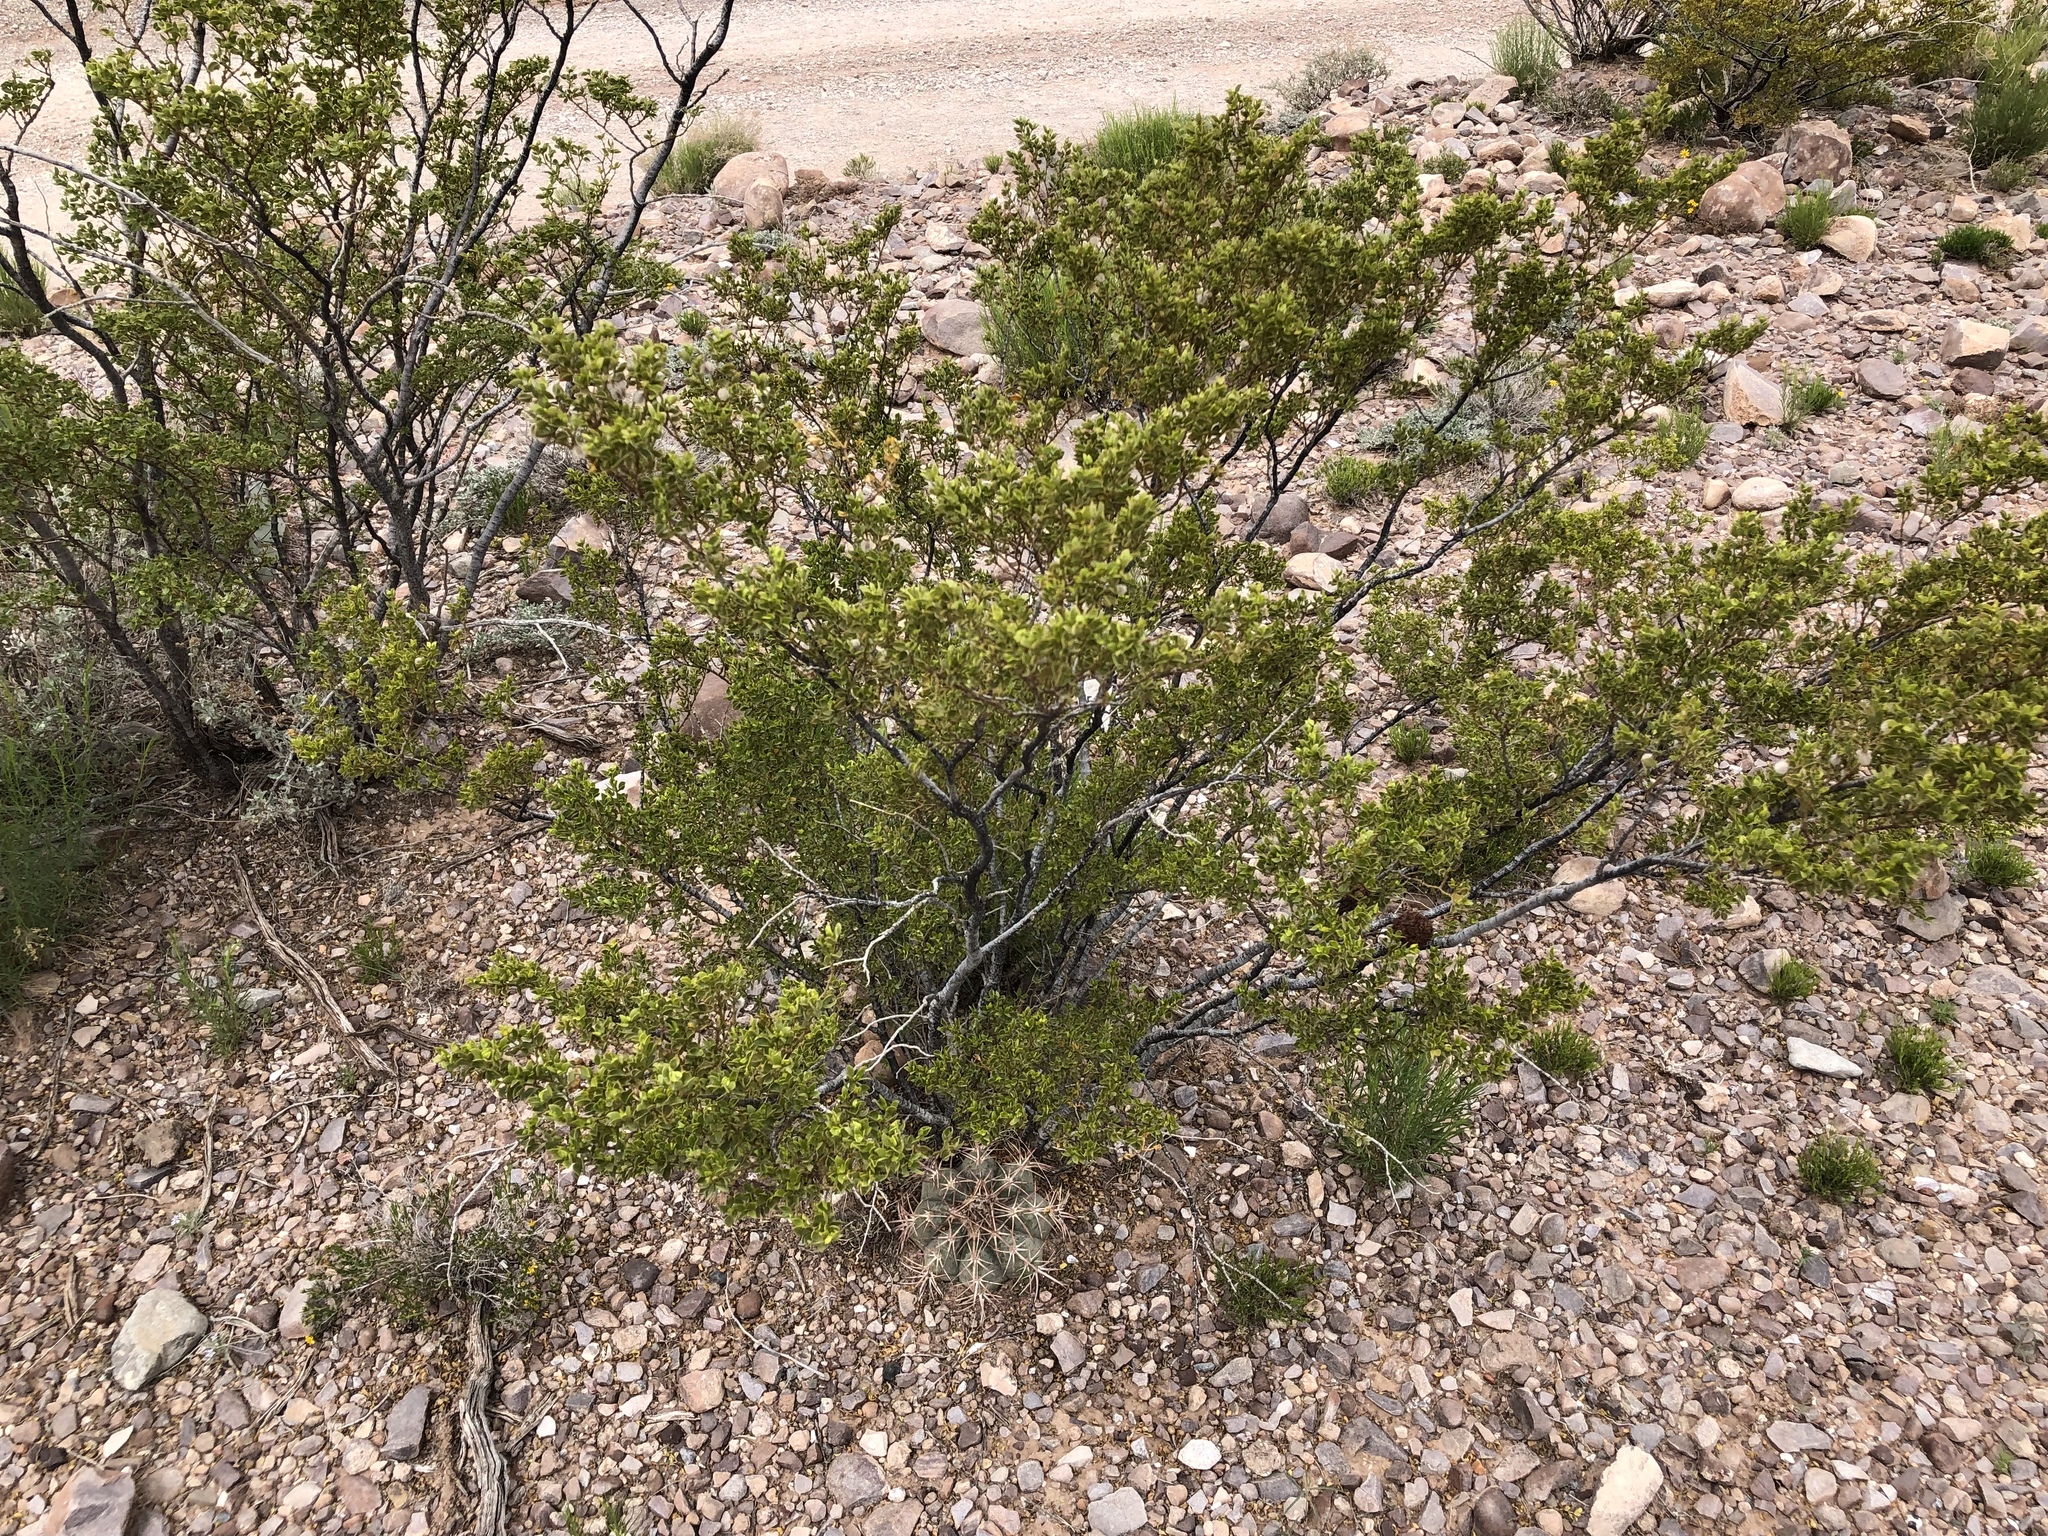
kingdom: Plantae
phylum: Tracheophyta
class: Magnoliopsida
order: Zygophyllales
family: Zygophyllaceae
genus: Larrea
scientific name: Larrea tridentata
